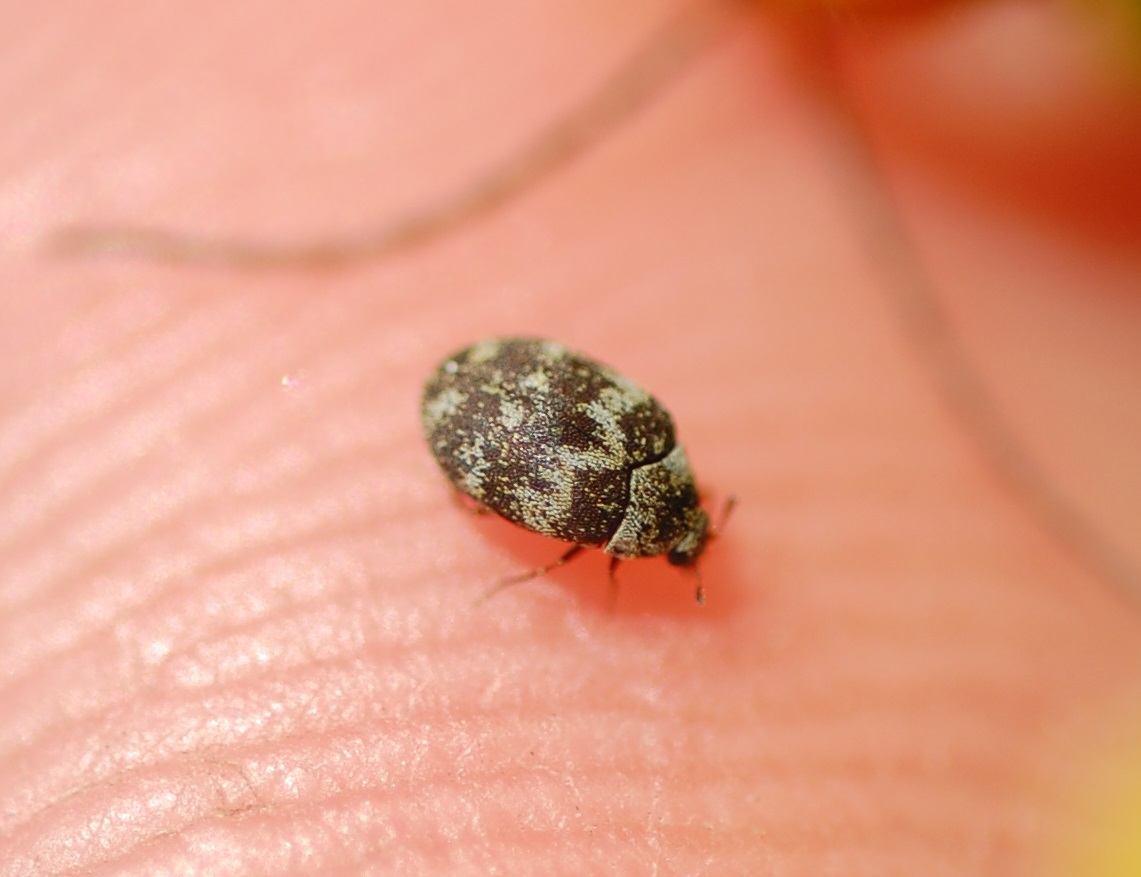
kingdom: Animalia
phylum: Arthropoda
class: Insecta
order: Coleoptera
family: Dermestidae
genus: Anthrenus
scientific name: Anthrenus fuscus
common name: Mill carpet beetle
